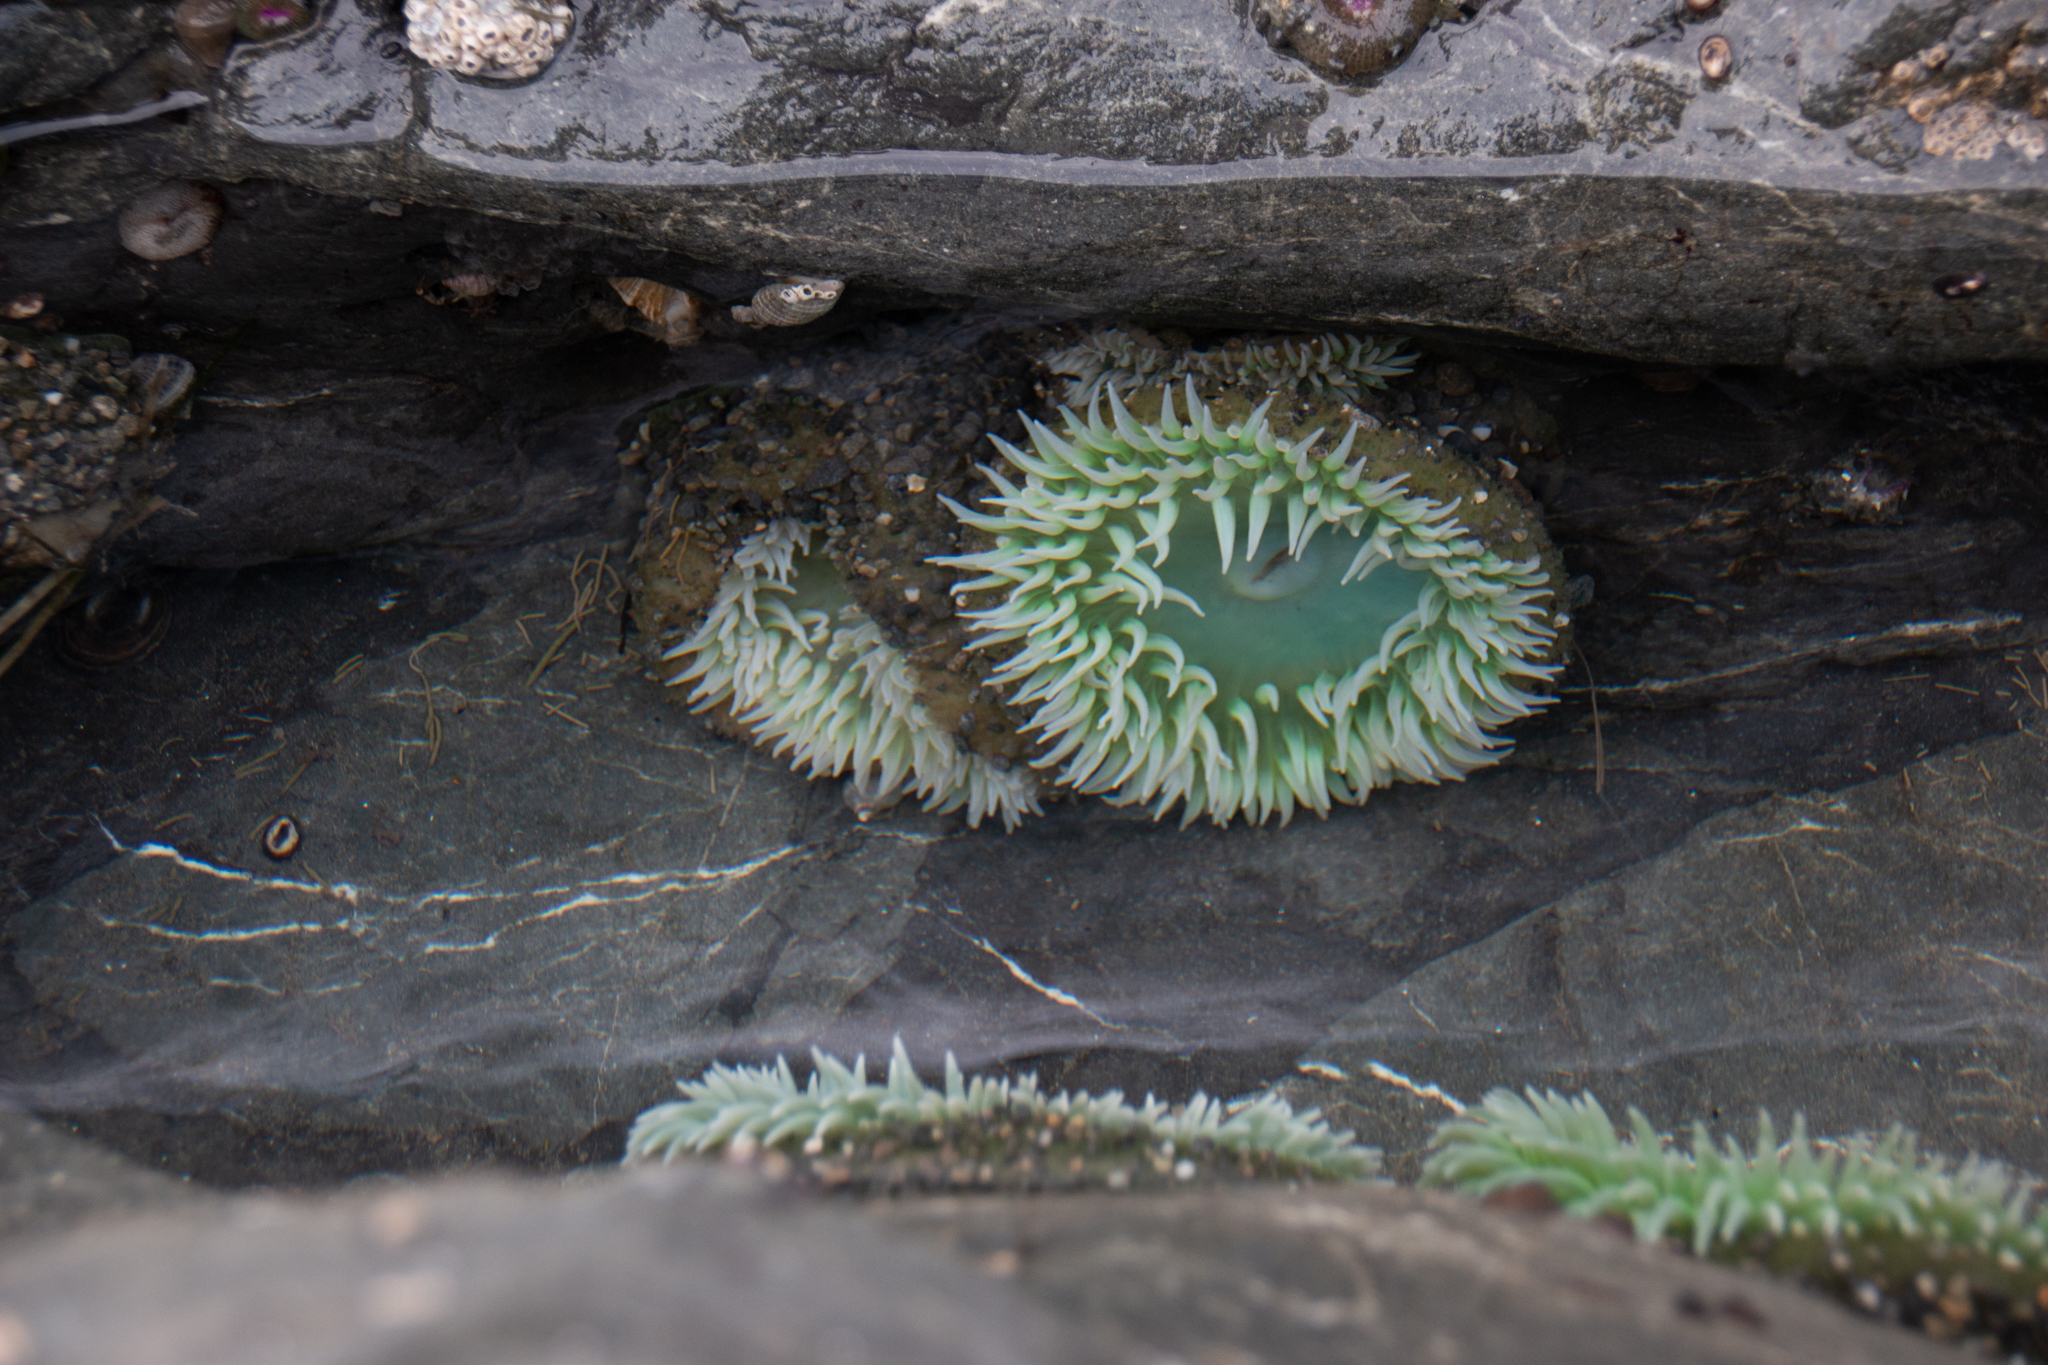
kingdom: Animalia
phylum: Cnidaria
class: Anthozoa
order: Actiniaria
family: Actiniidae
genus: Anthopleura
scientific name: Anthopleura xanthogrammica
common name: Giant green anemone
